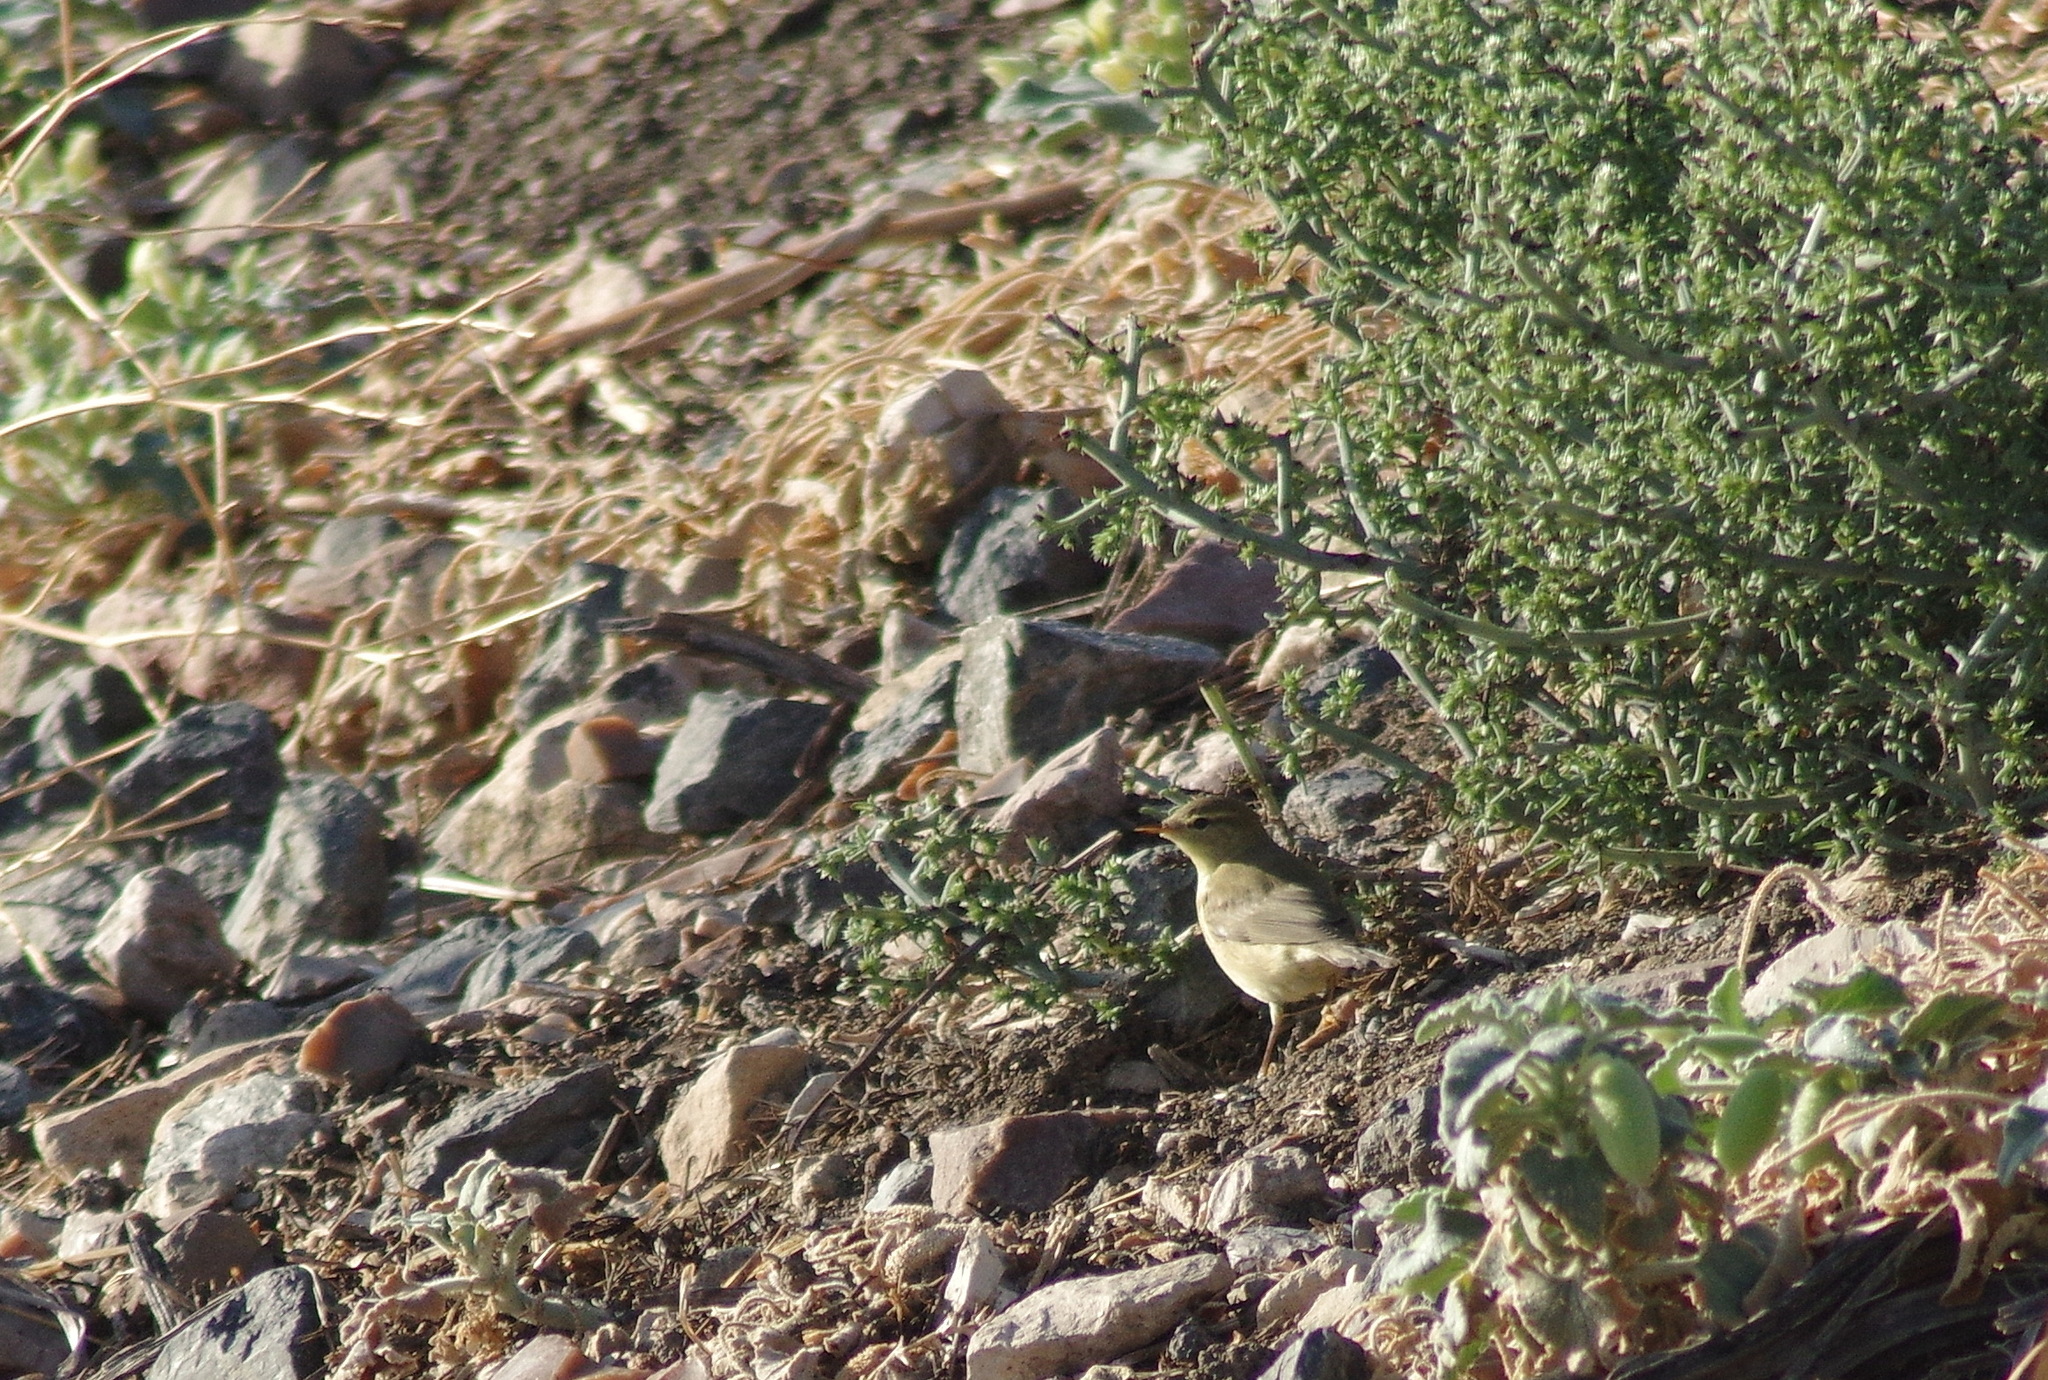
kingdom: Animalia
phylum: Chordata
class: Aves
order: Passeriformes
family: Phylloscopidae
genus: Phylloscopus
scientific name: Phylloscopus trochilus
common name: Willow warbler
